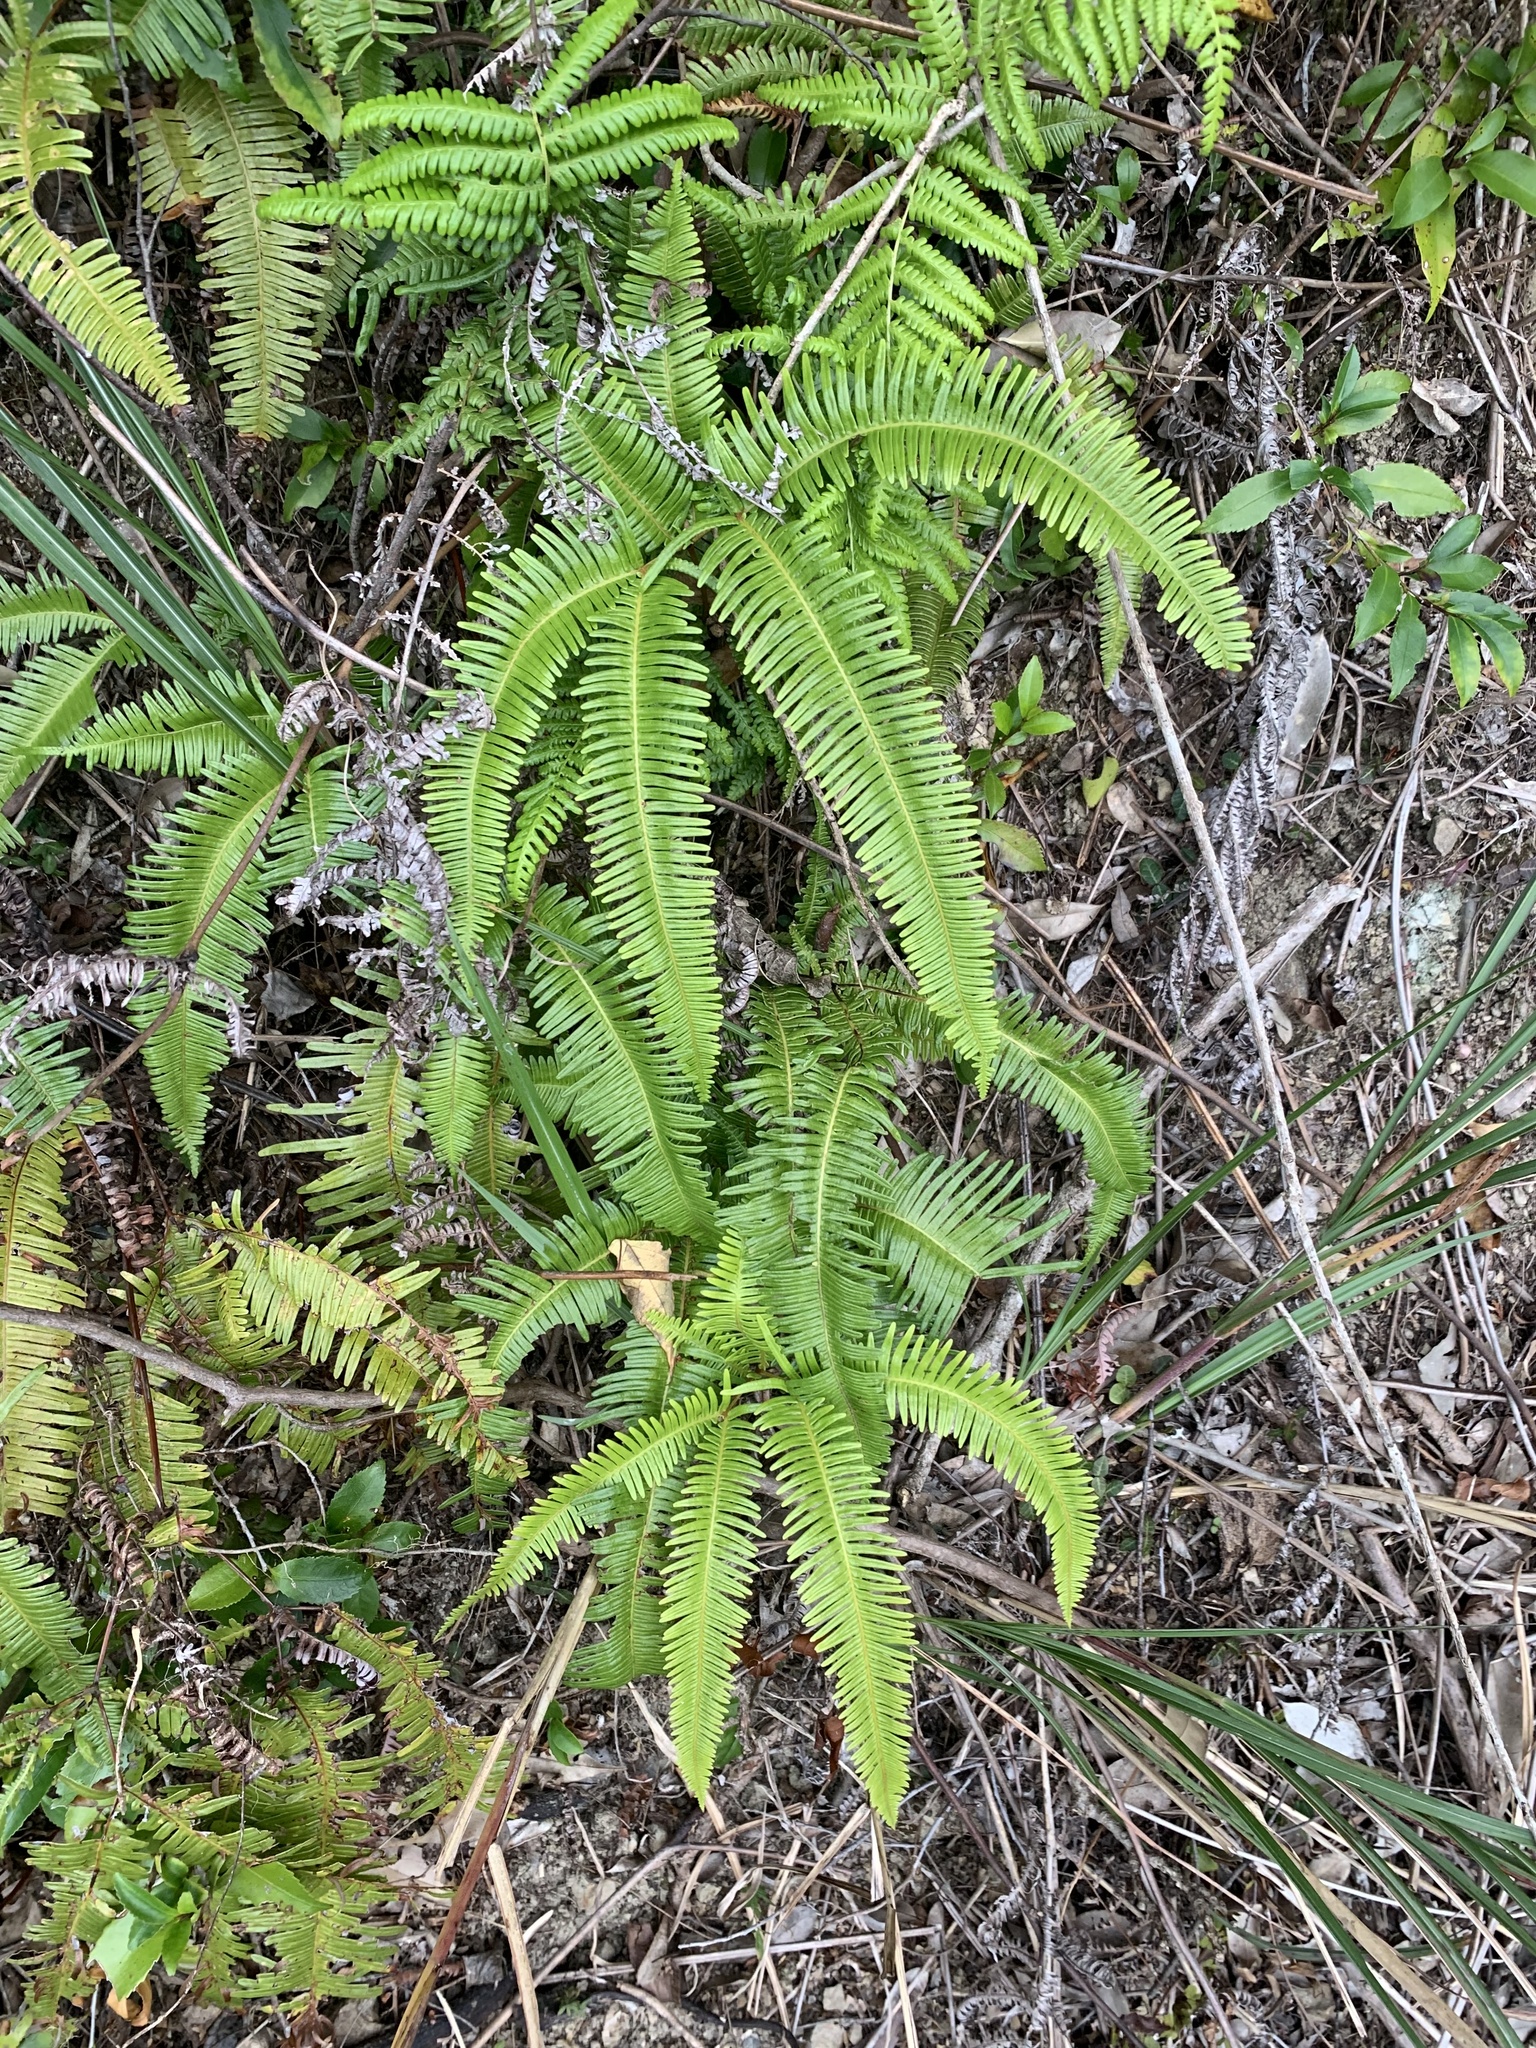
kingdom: Plantae
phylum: Tracheophyta
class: Polypodiopsida
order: Gleicheniales
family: Gleicheniaceae
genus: Dicranopteris
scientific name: Dicranopteris linearis
